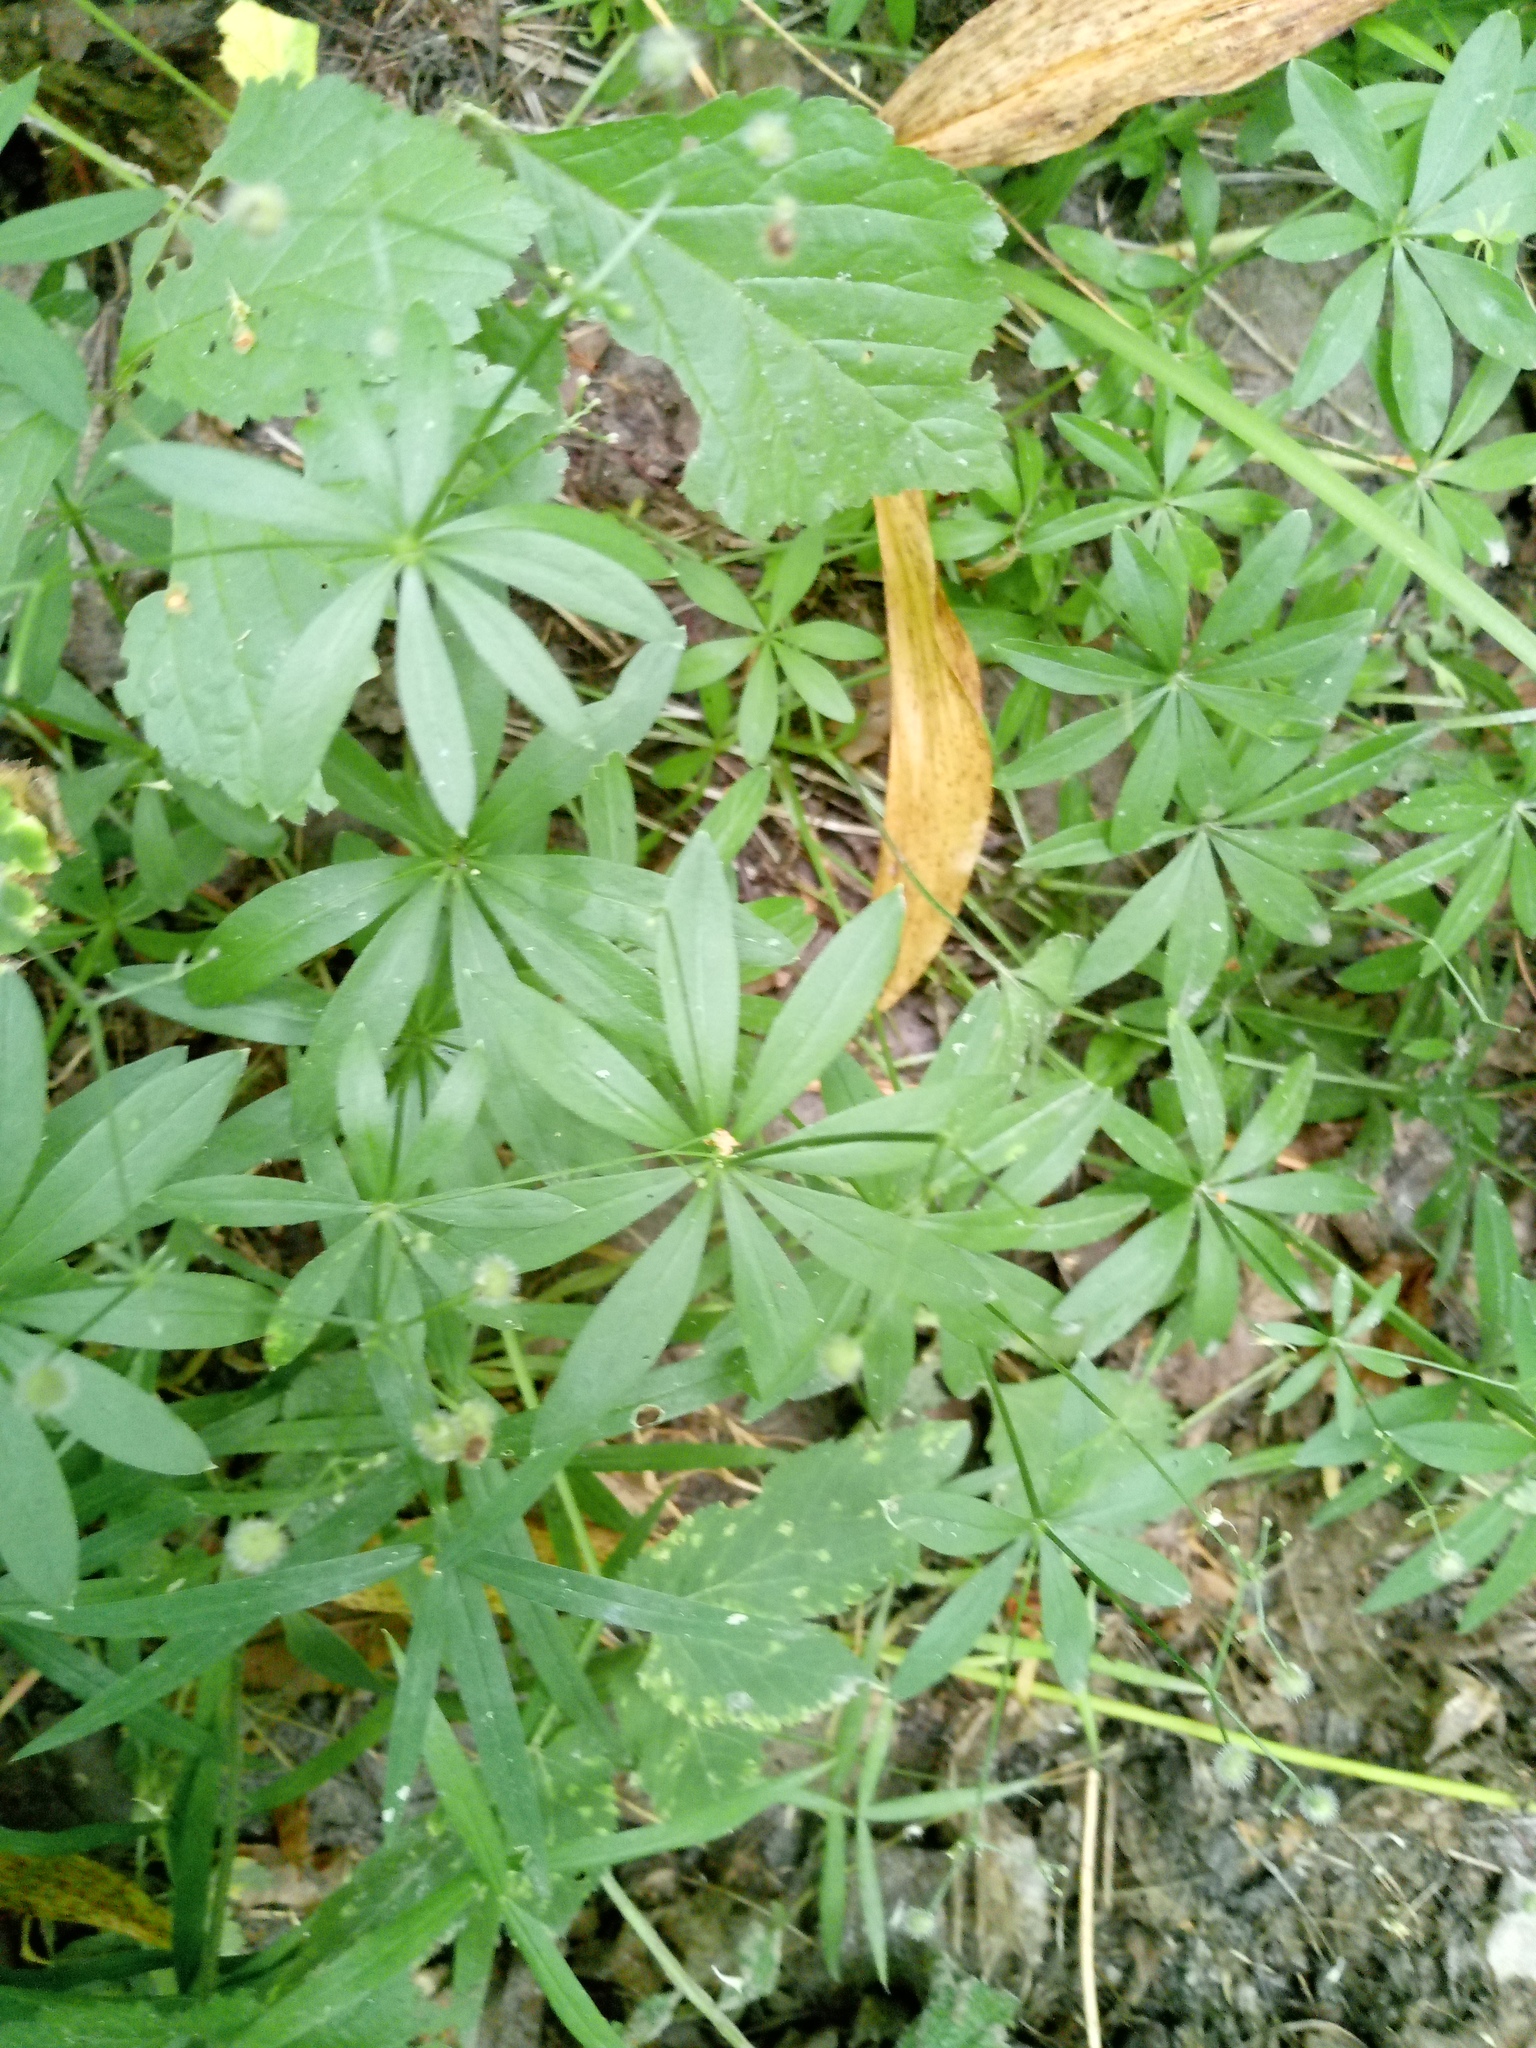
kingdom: Plantae
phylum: Tracheophyta
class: Magnoliopsida
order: Gentianales
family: Rubiaceae
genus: Galium
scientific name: Galium odoratum
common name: Sweet woodruff
